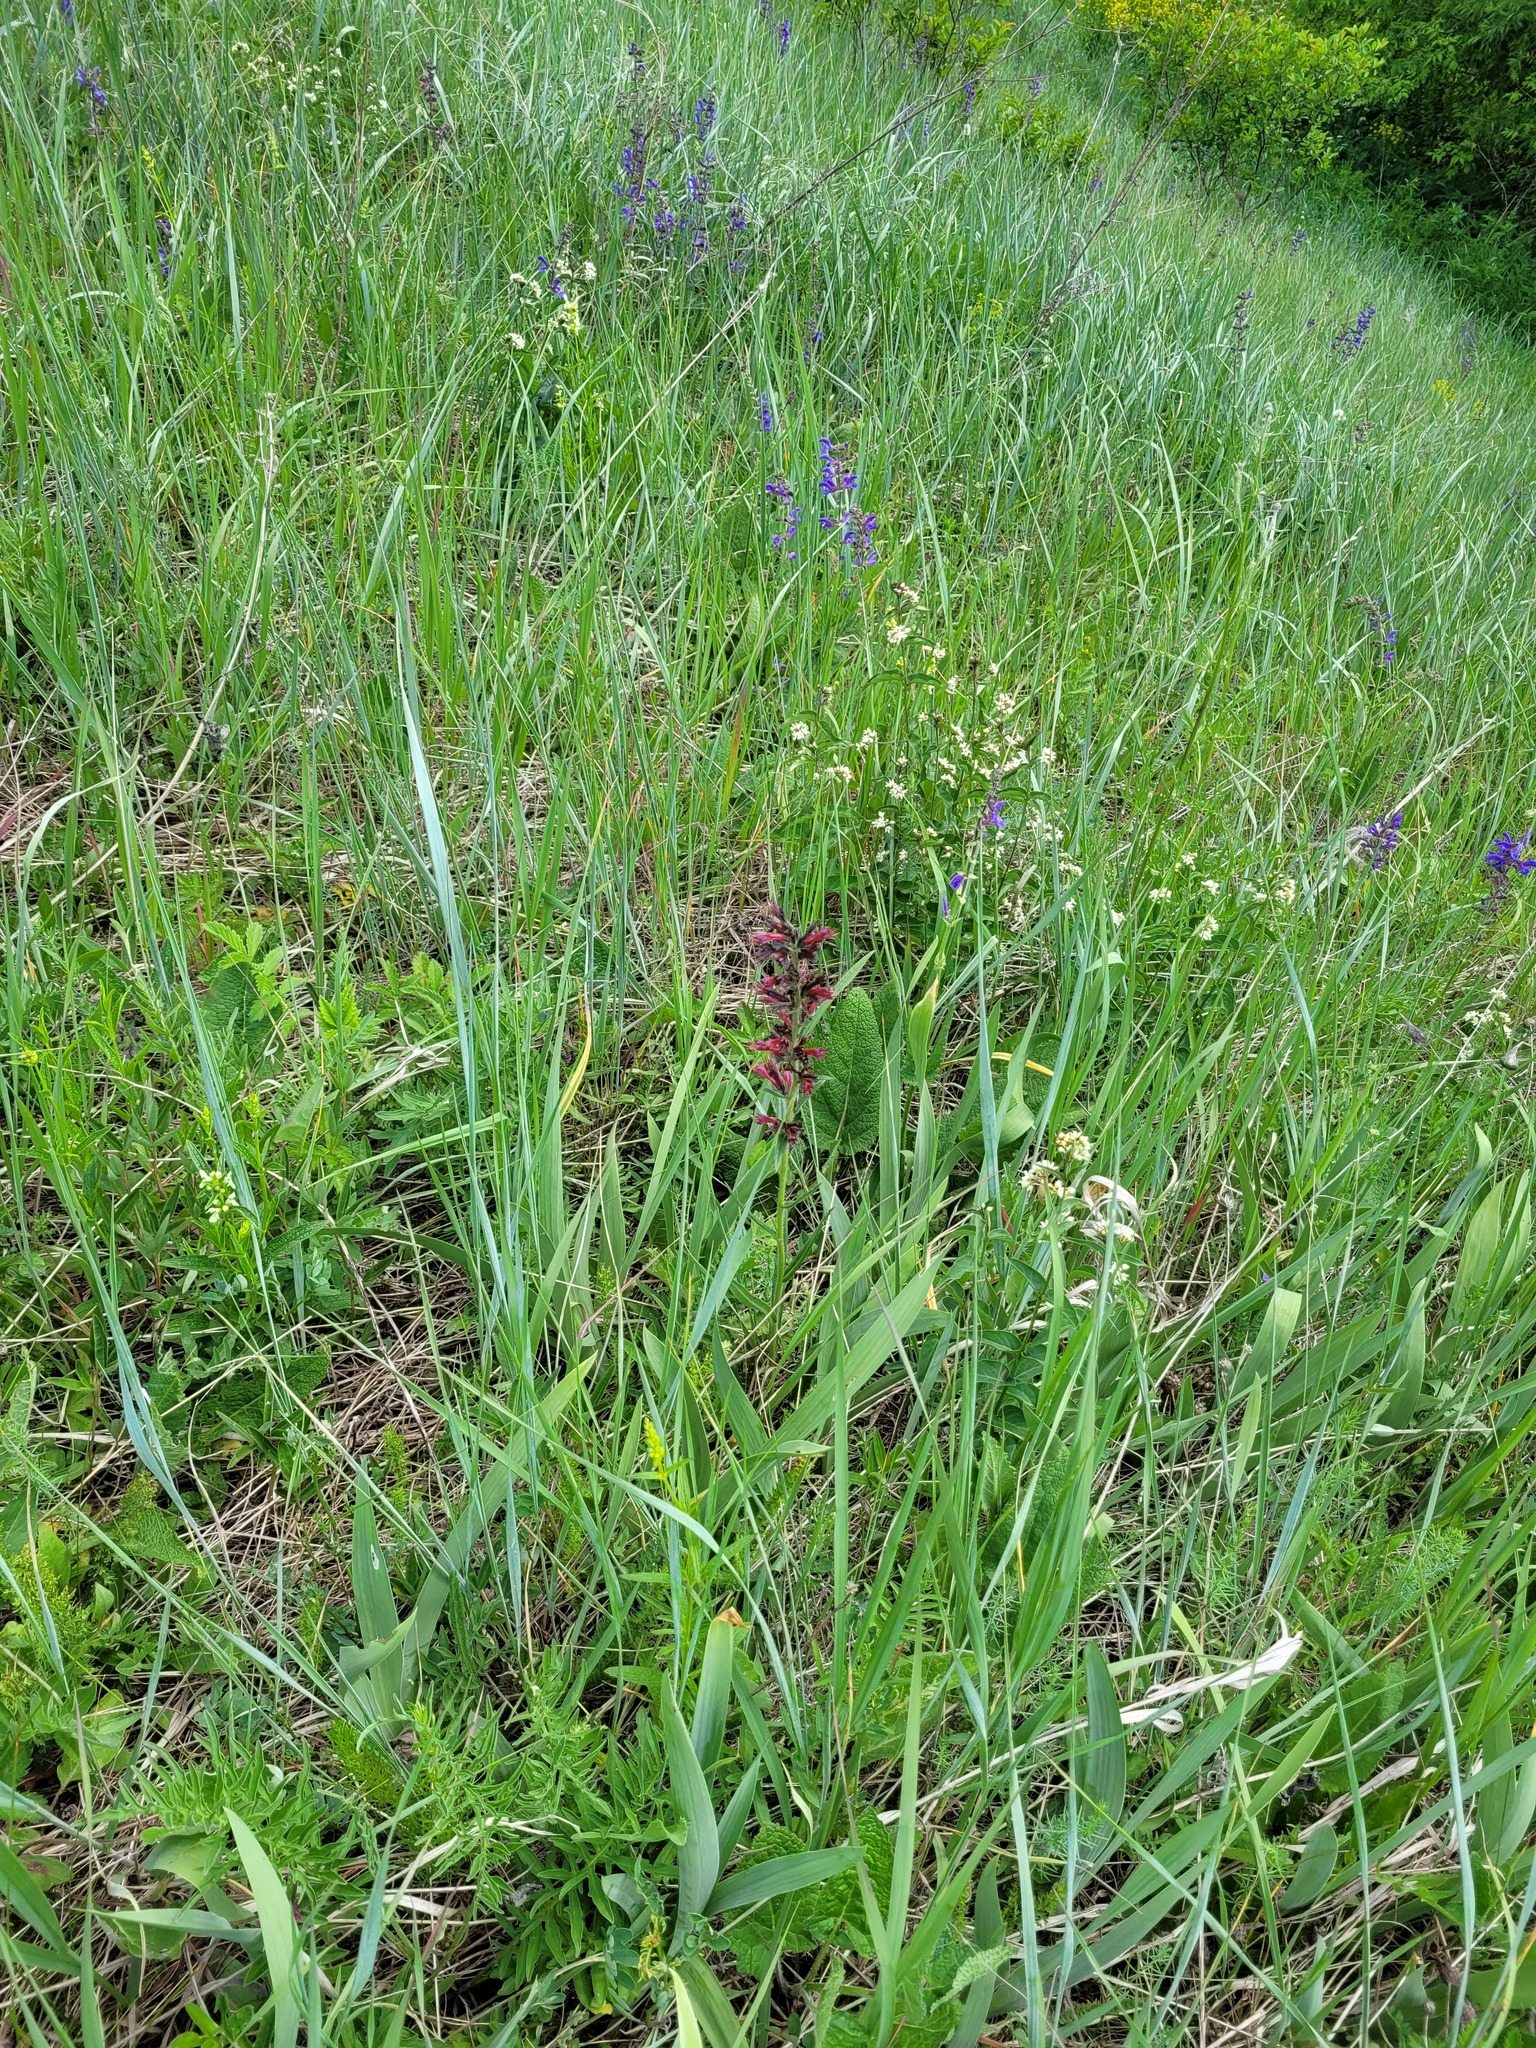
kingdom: Plantae
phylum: Tracheophyta
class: Magnoliopsida
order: Boraginales
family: Boraginaceae
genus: Pontechium
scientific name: Pontechium maculatum
